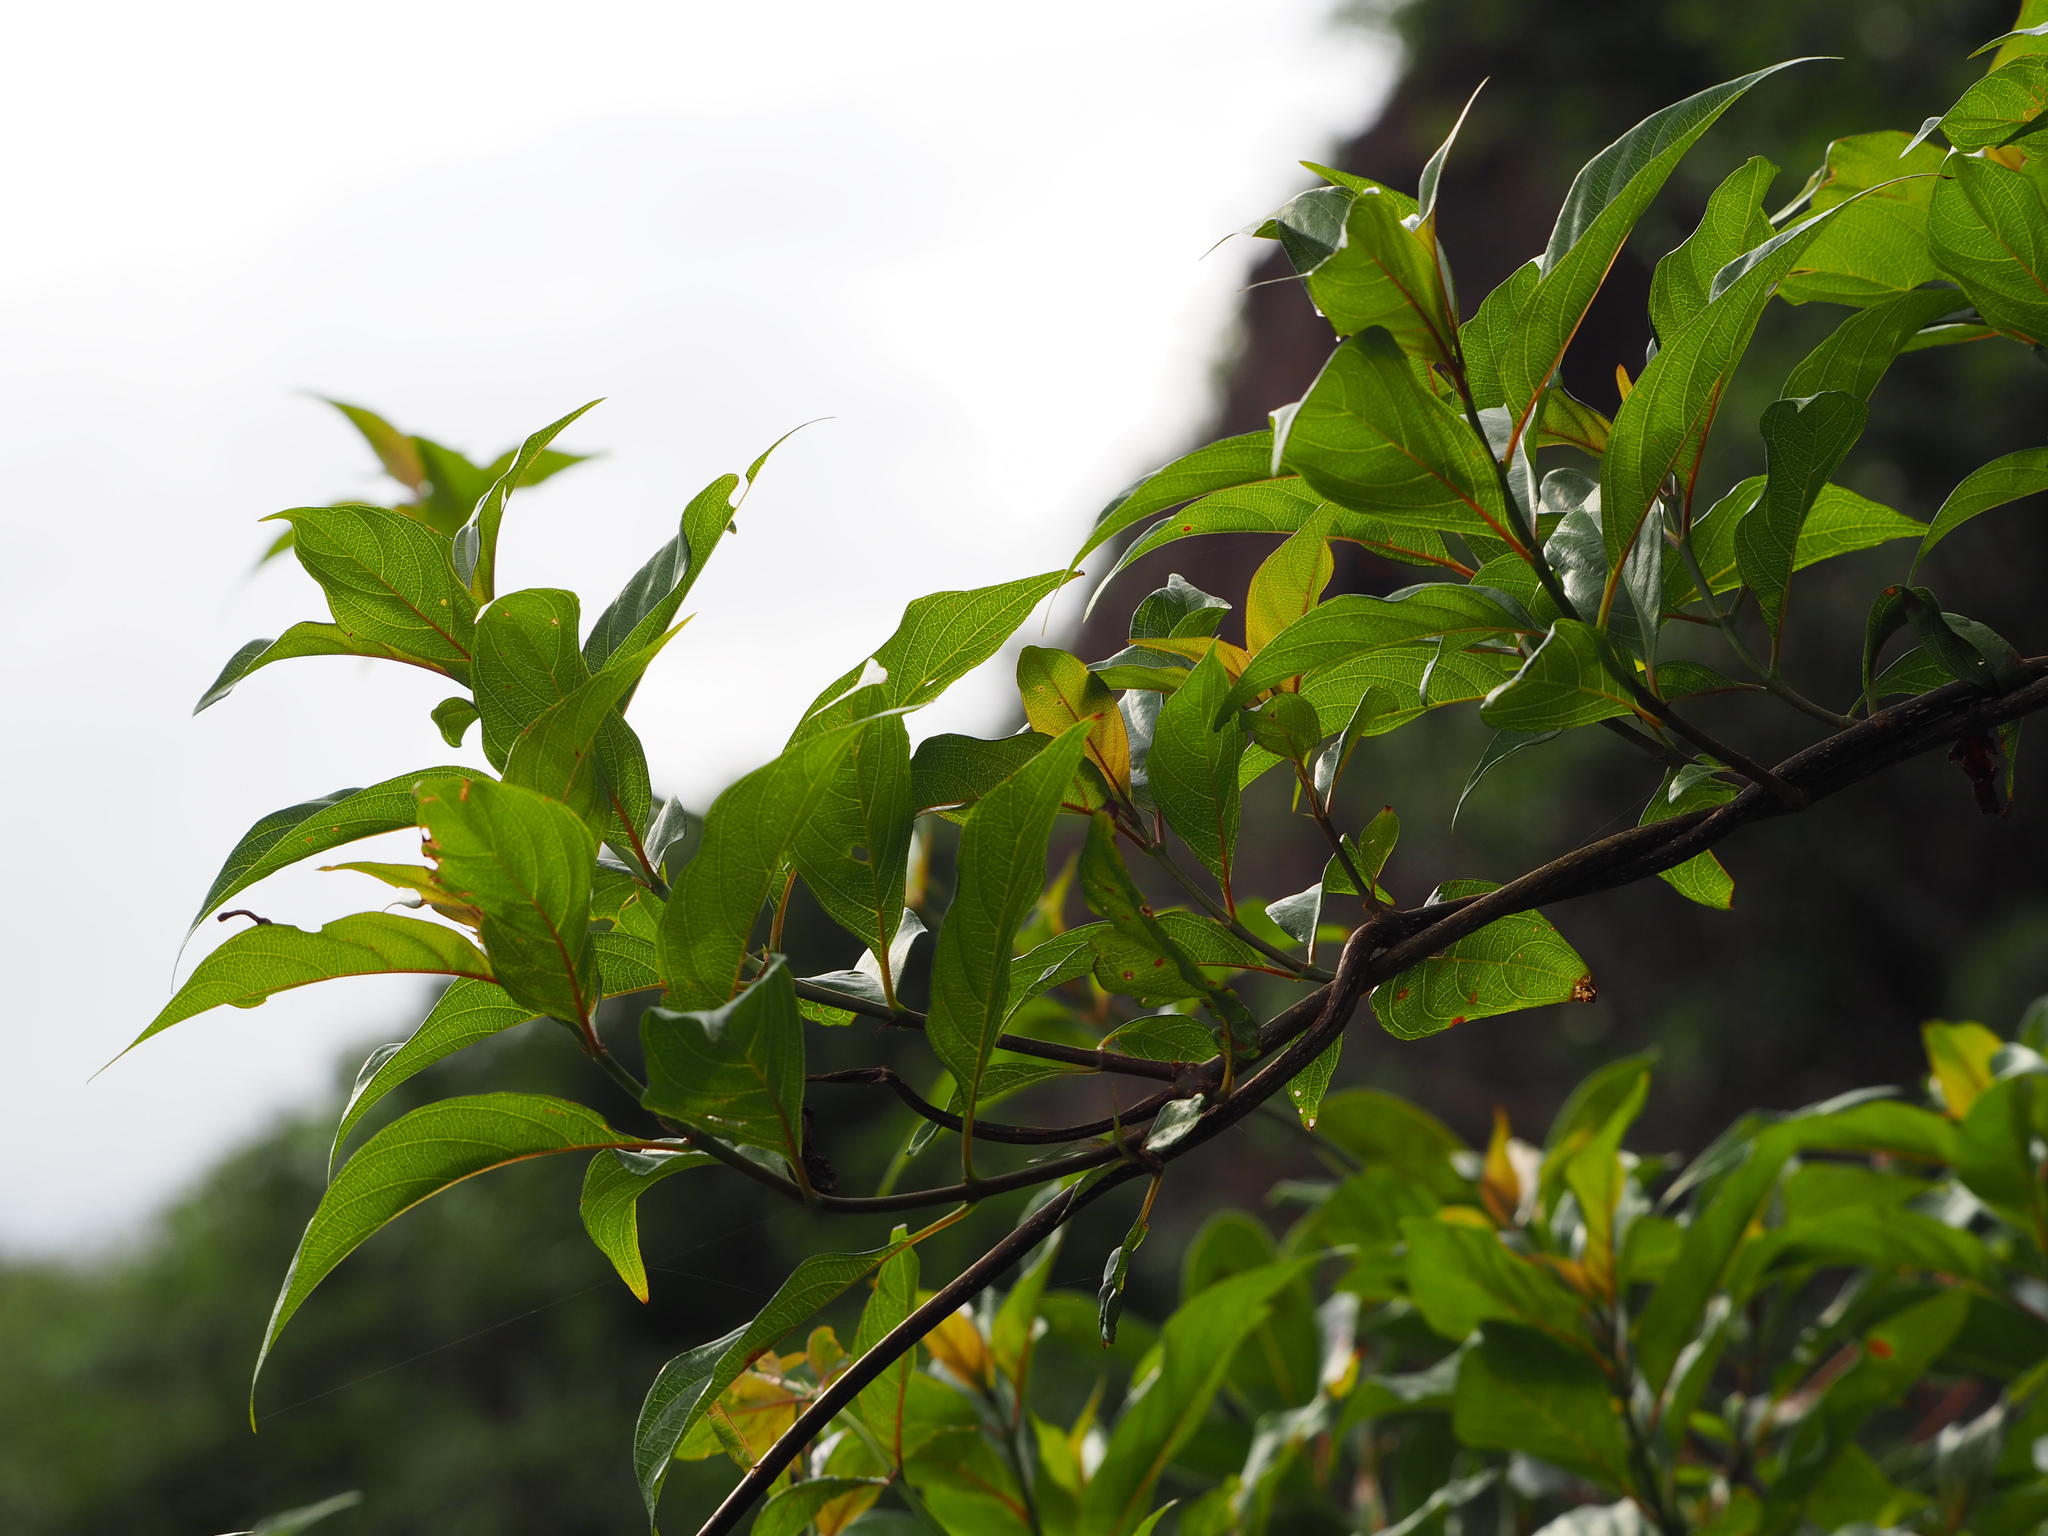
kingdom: Plantae
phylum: Tracheophyta
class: Magnoliopsida
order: Gentianales
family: Rubiaceae
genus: Mussaenda
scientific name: Mussaenda parviflora
